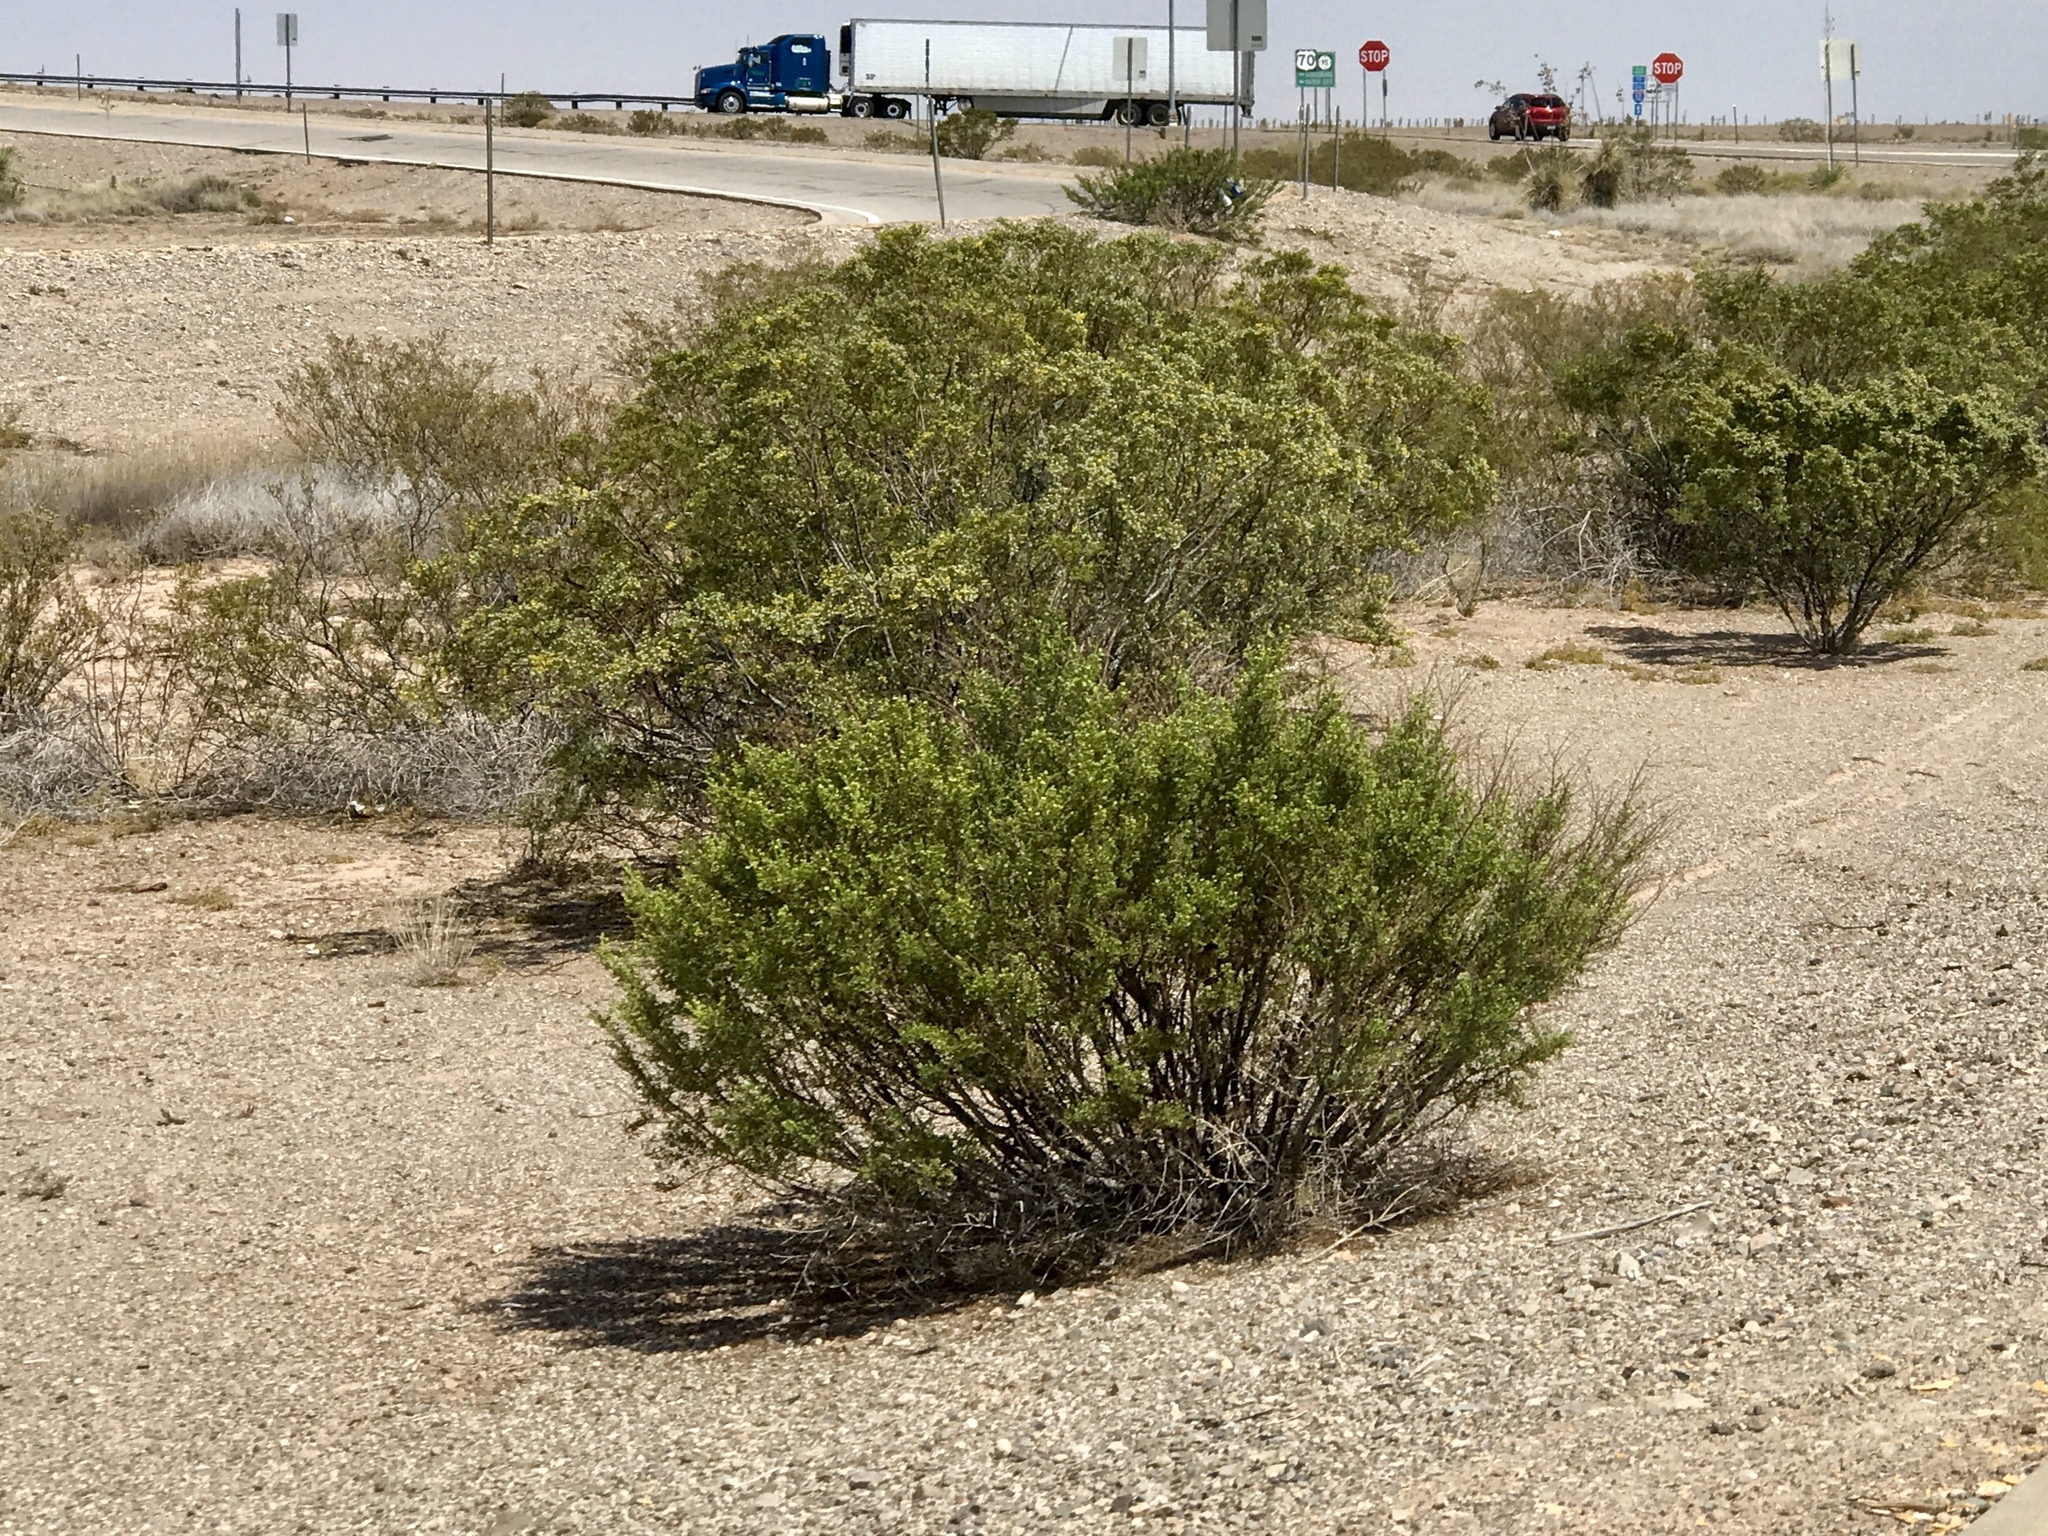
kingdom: Plantae
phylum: Tracheophyta
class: Magnoliopsida
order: Zygophyllales
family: Zygophyllaceae
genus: Larrea
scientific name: Larrea tridentata
